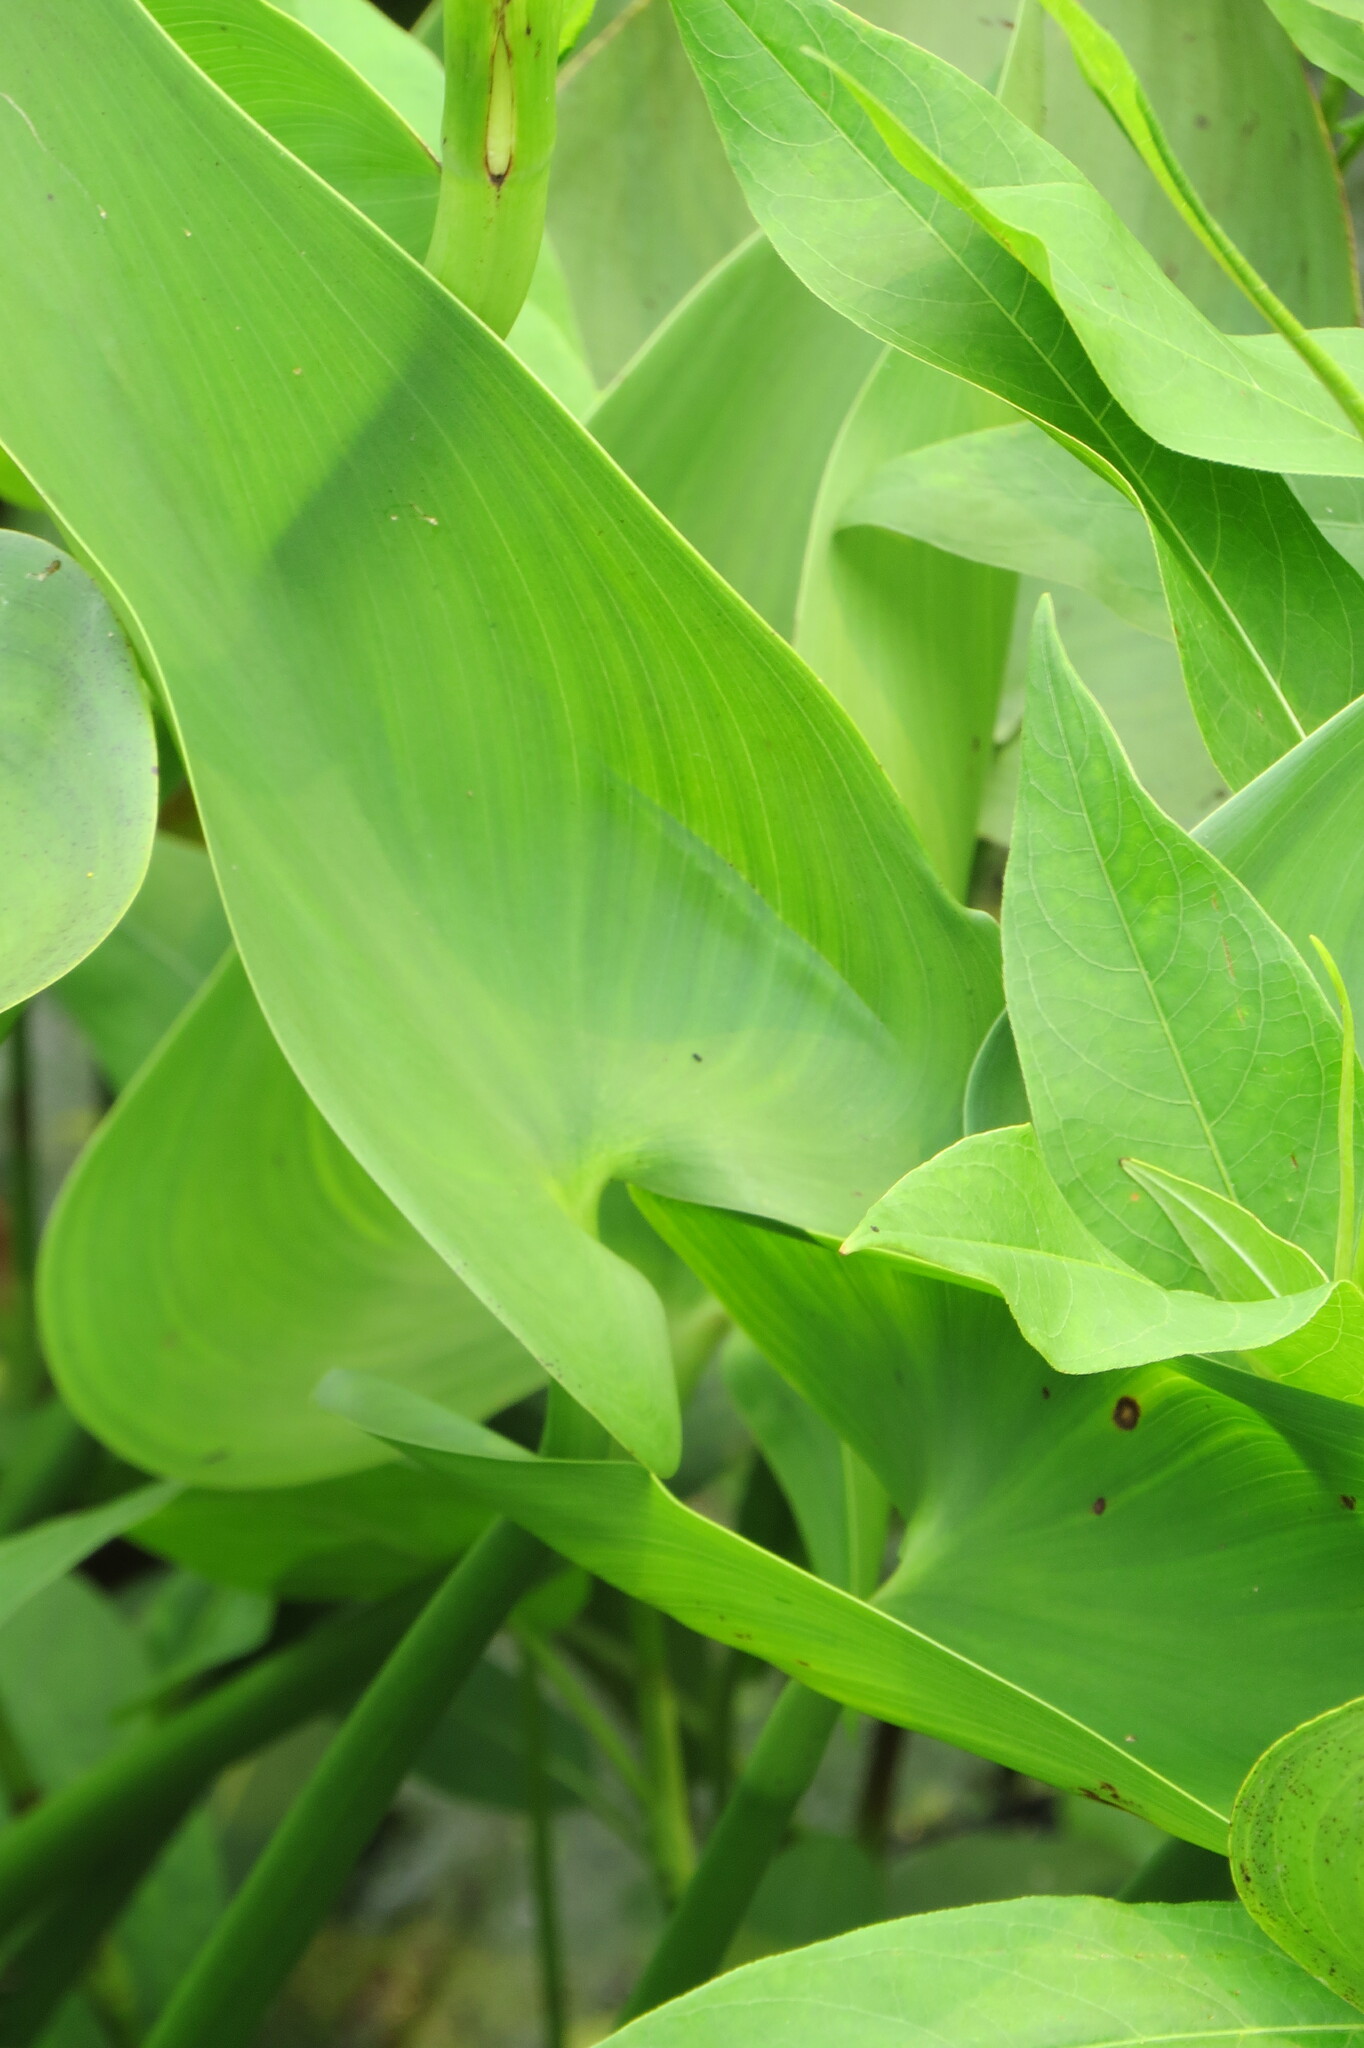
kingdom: Plantae
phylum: Tracheophyta
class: Liliopsida
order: Commelinales
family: Pontederiaceae
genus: Pontederia
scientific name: Pontederia cordata
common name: Pickerelweed
